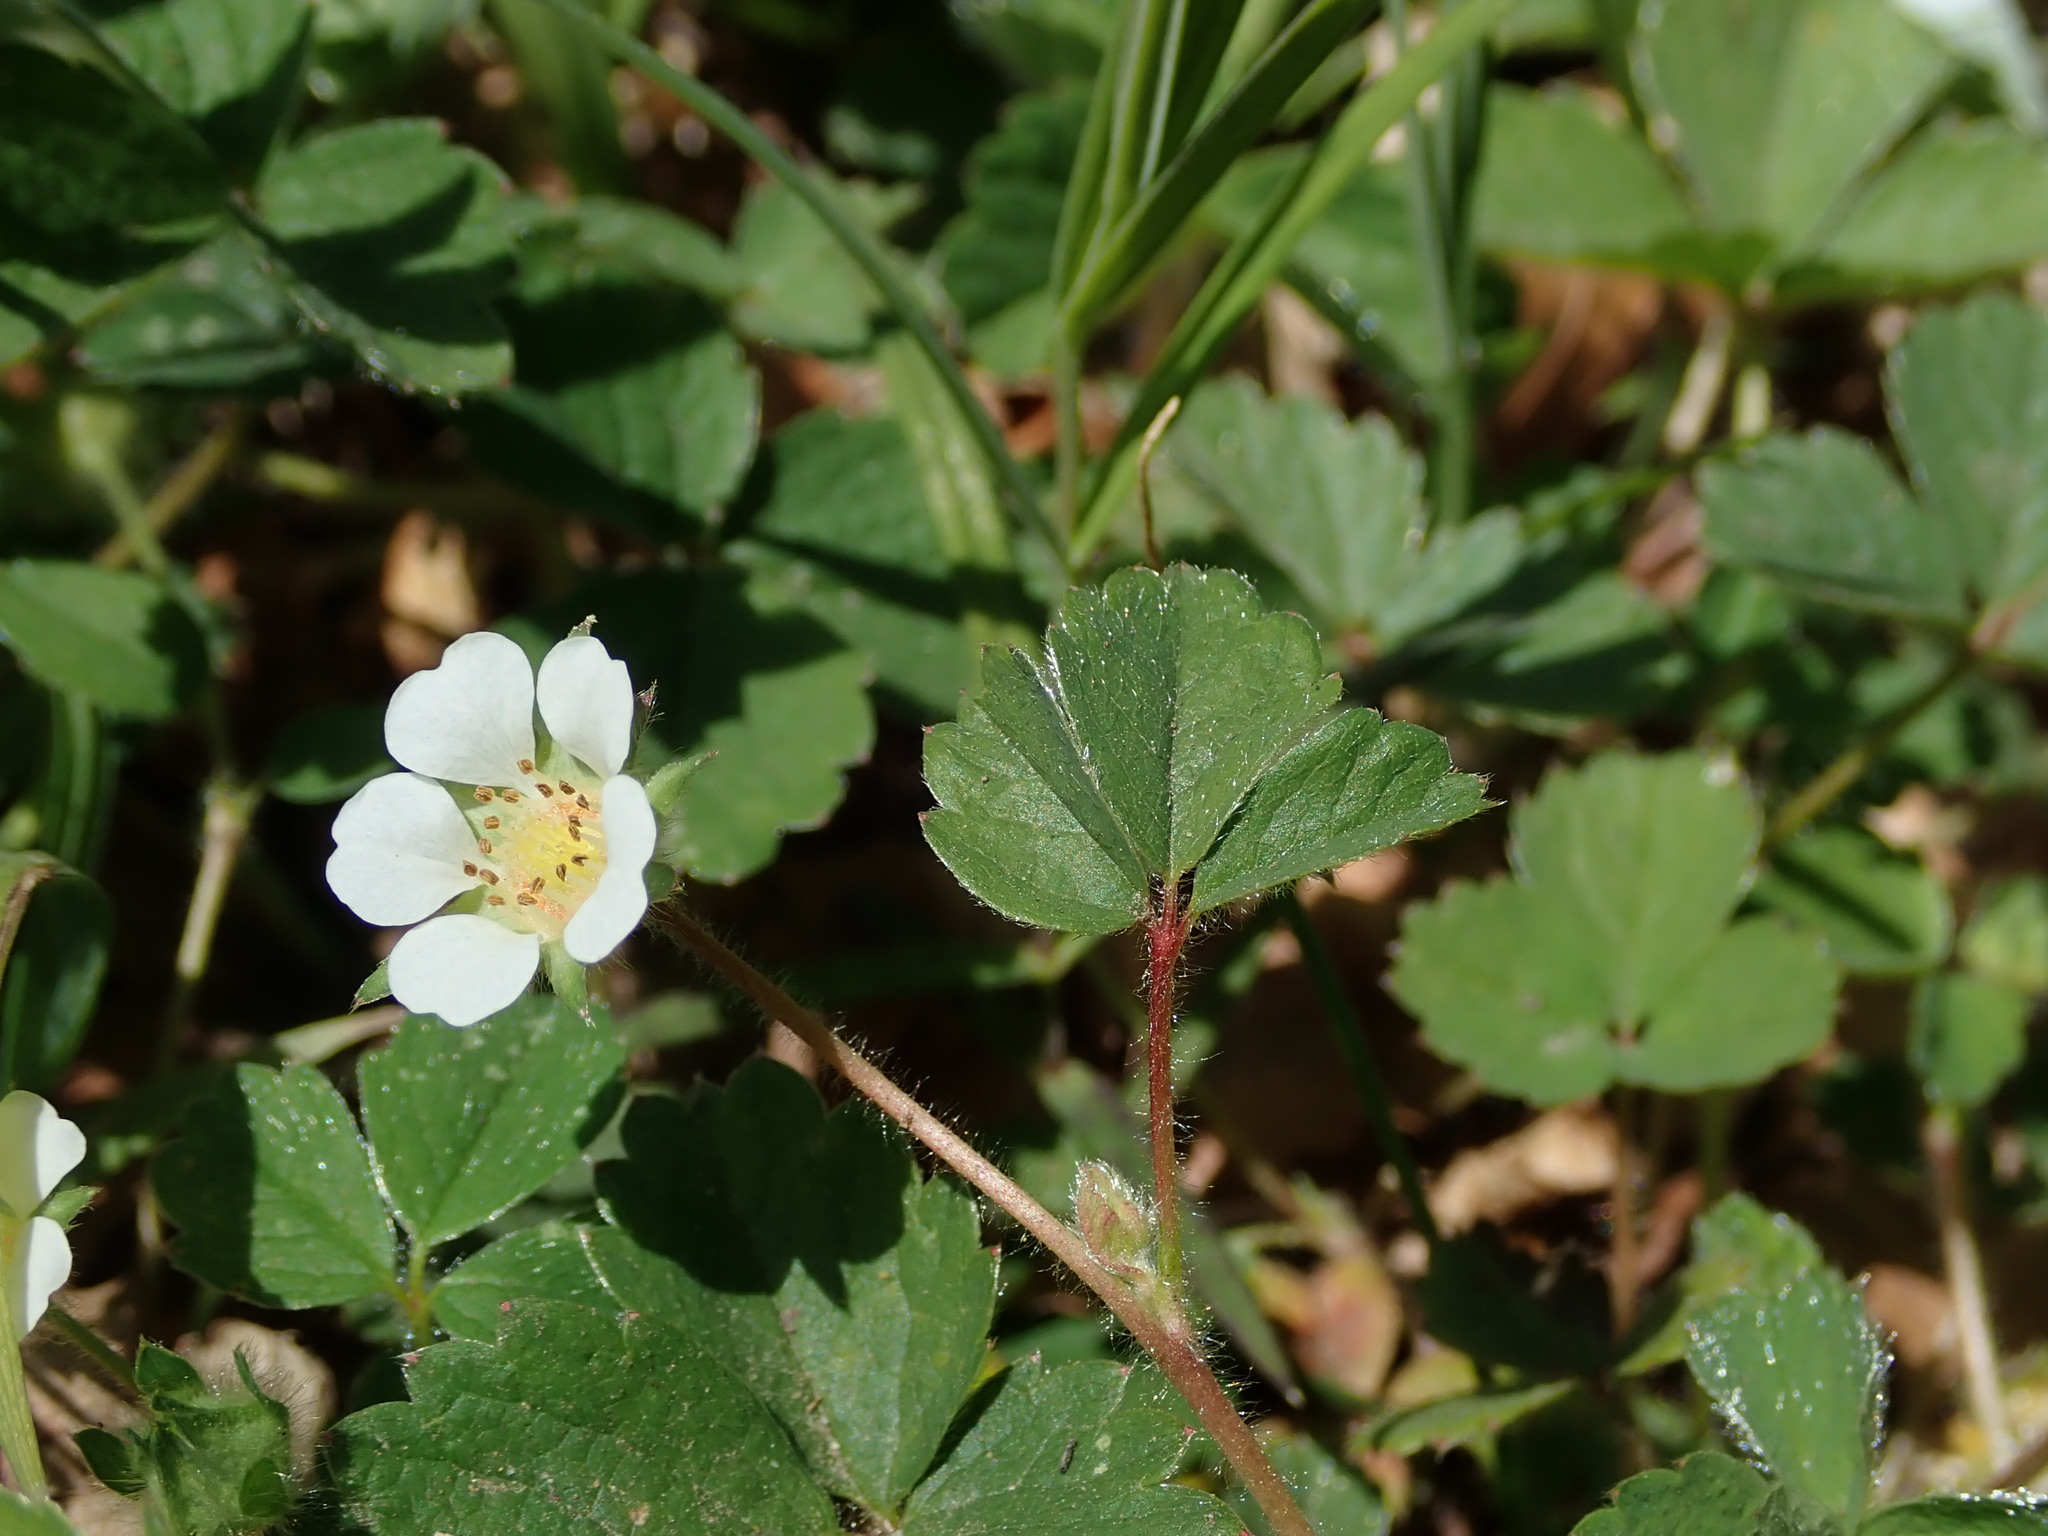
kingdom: Plantae
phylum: Tracheophyta
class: Magnoliopsida
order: Rosales
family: Rosaceae
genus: Potentilla
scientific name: Potentilla sterilis
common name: Barren strawberry
